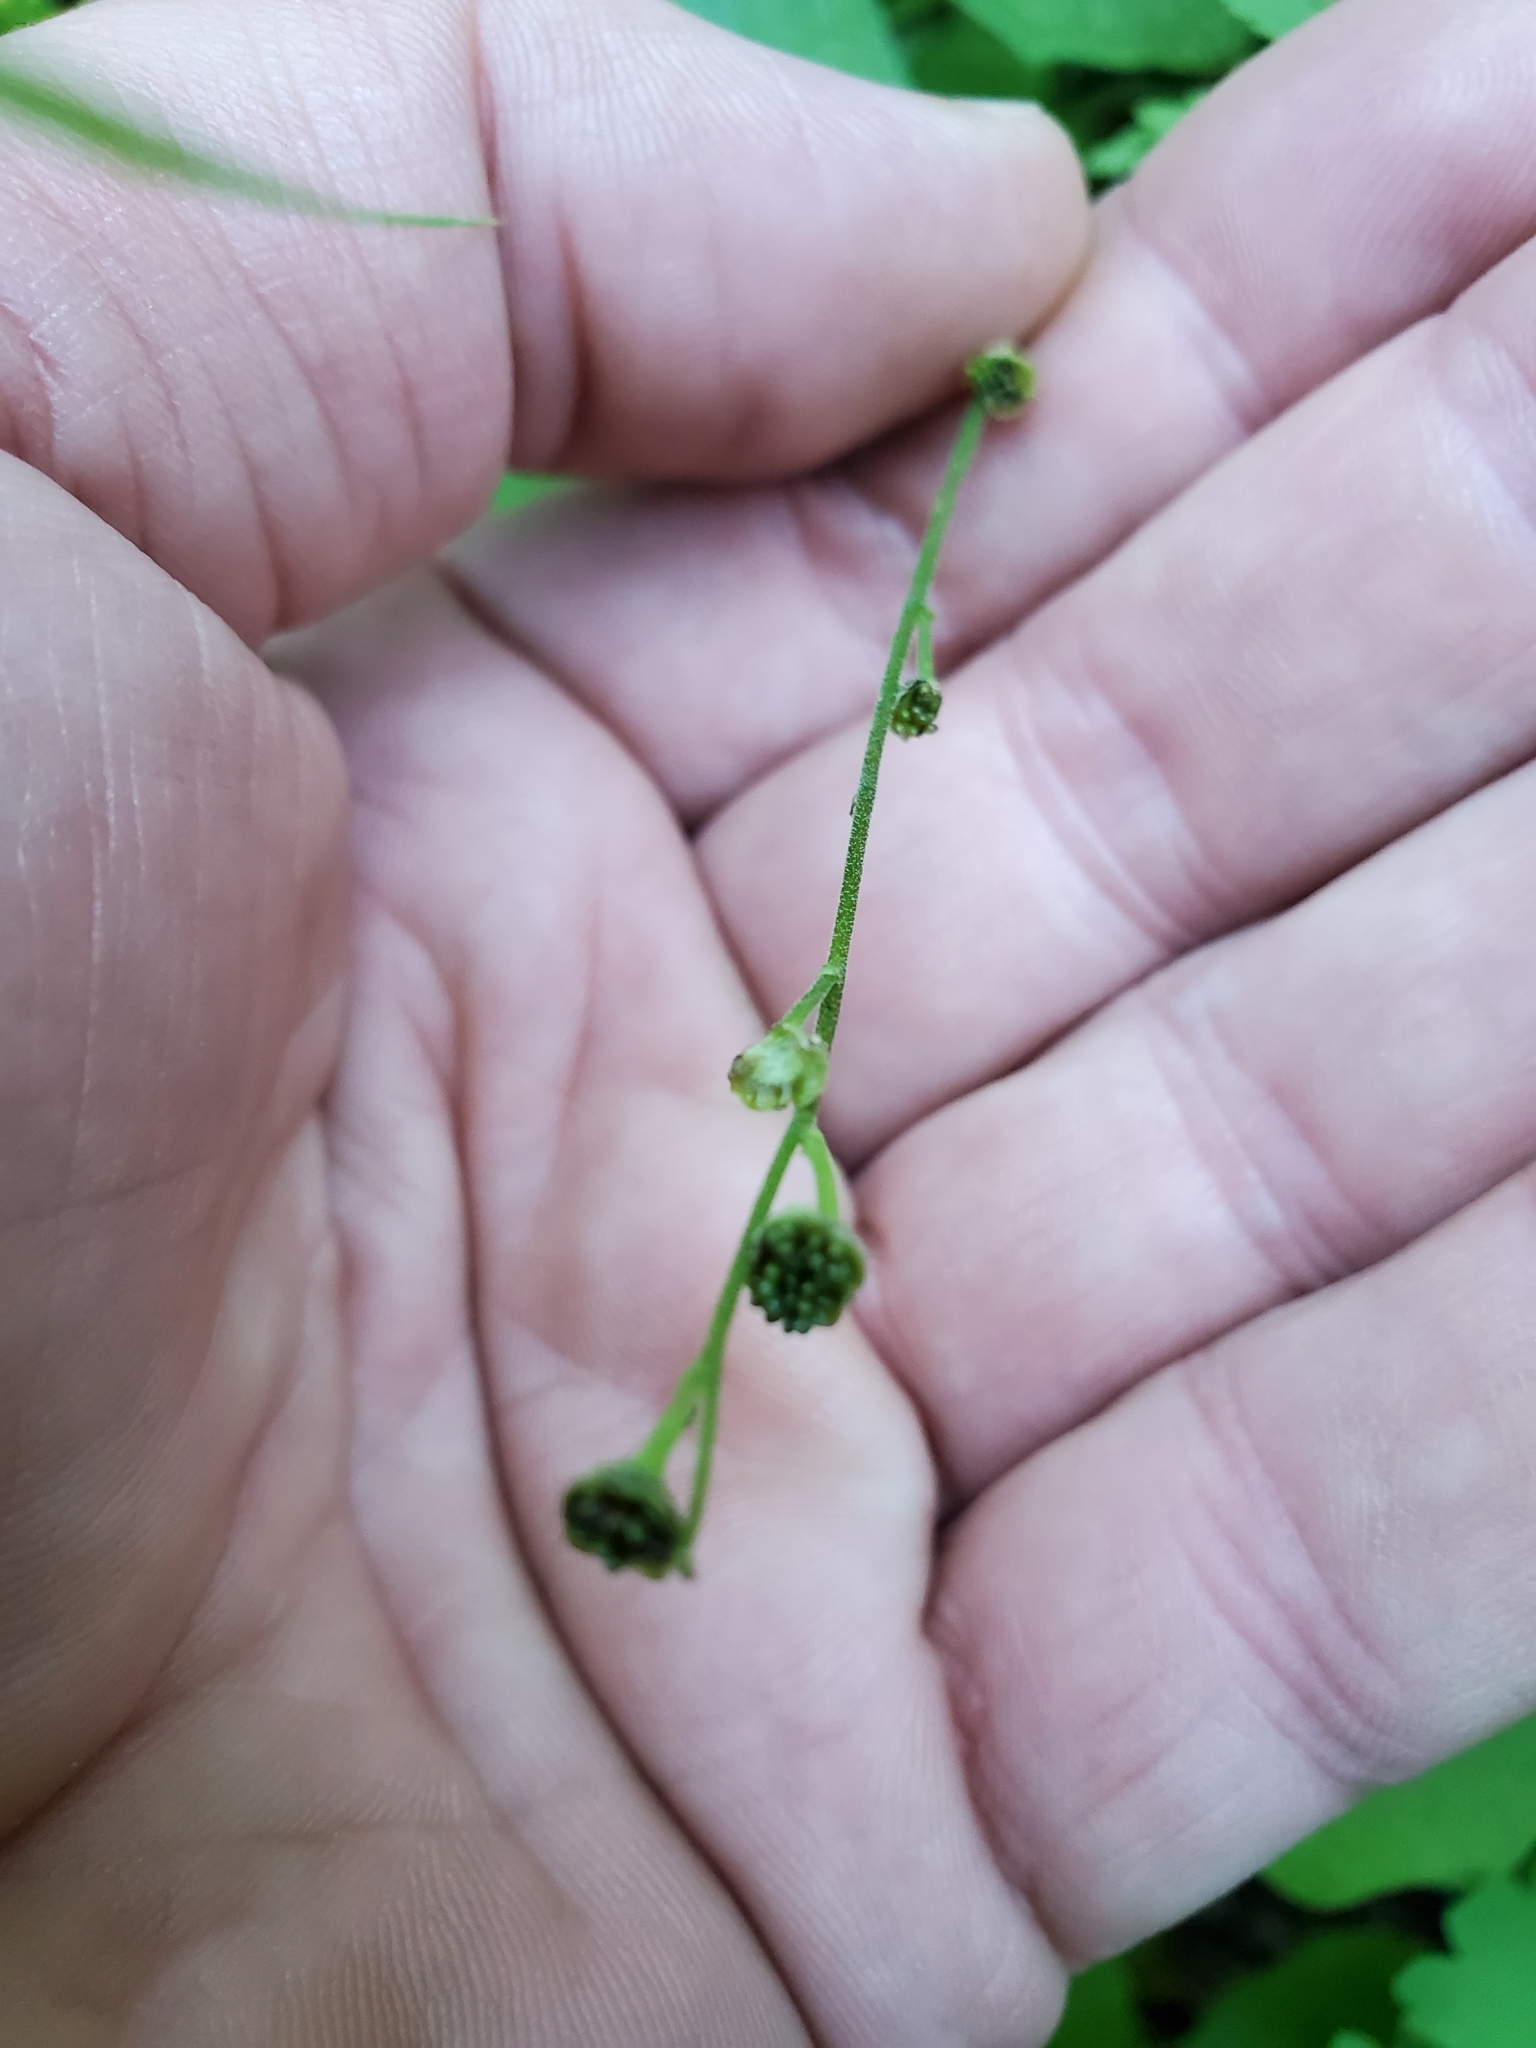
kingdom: Plantae
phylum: Tracheophyta
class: Magnoliopsida
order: Saxifragales
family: Saxifragaceae
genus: Mitella
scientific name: Mitella nuda
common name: Bare-stemmed bishop's-cap
